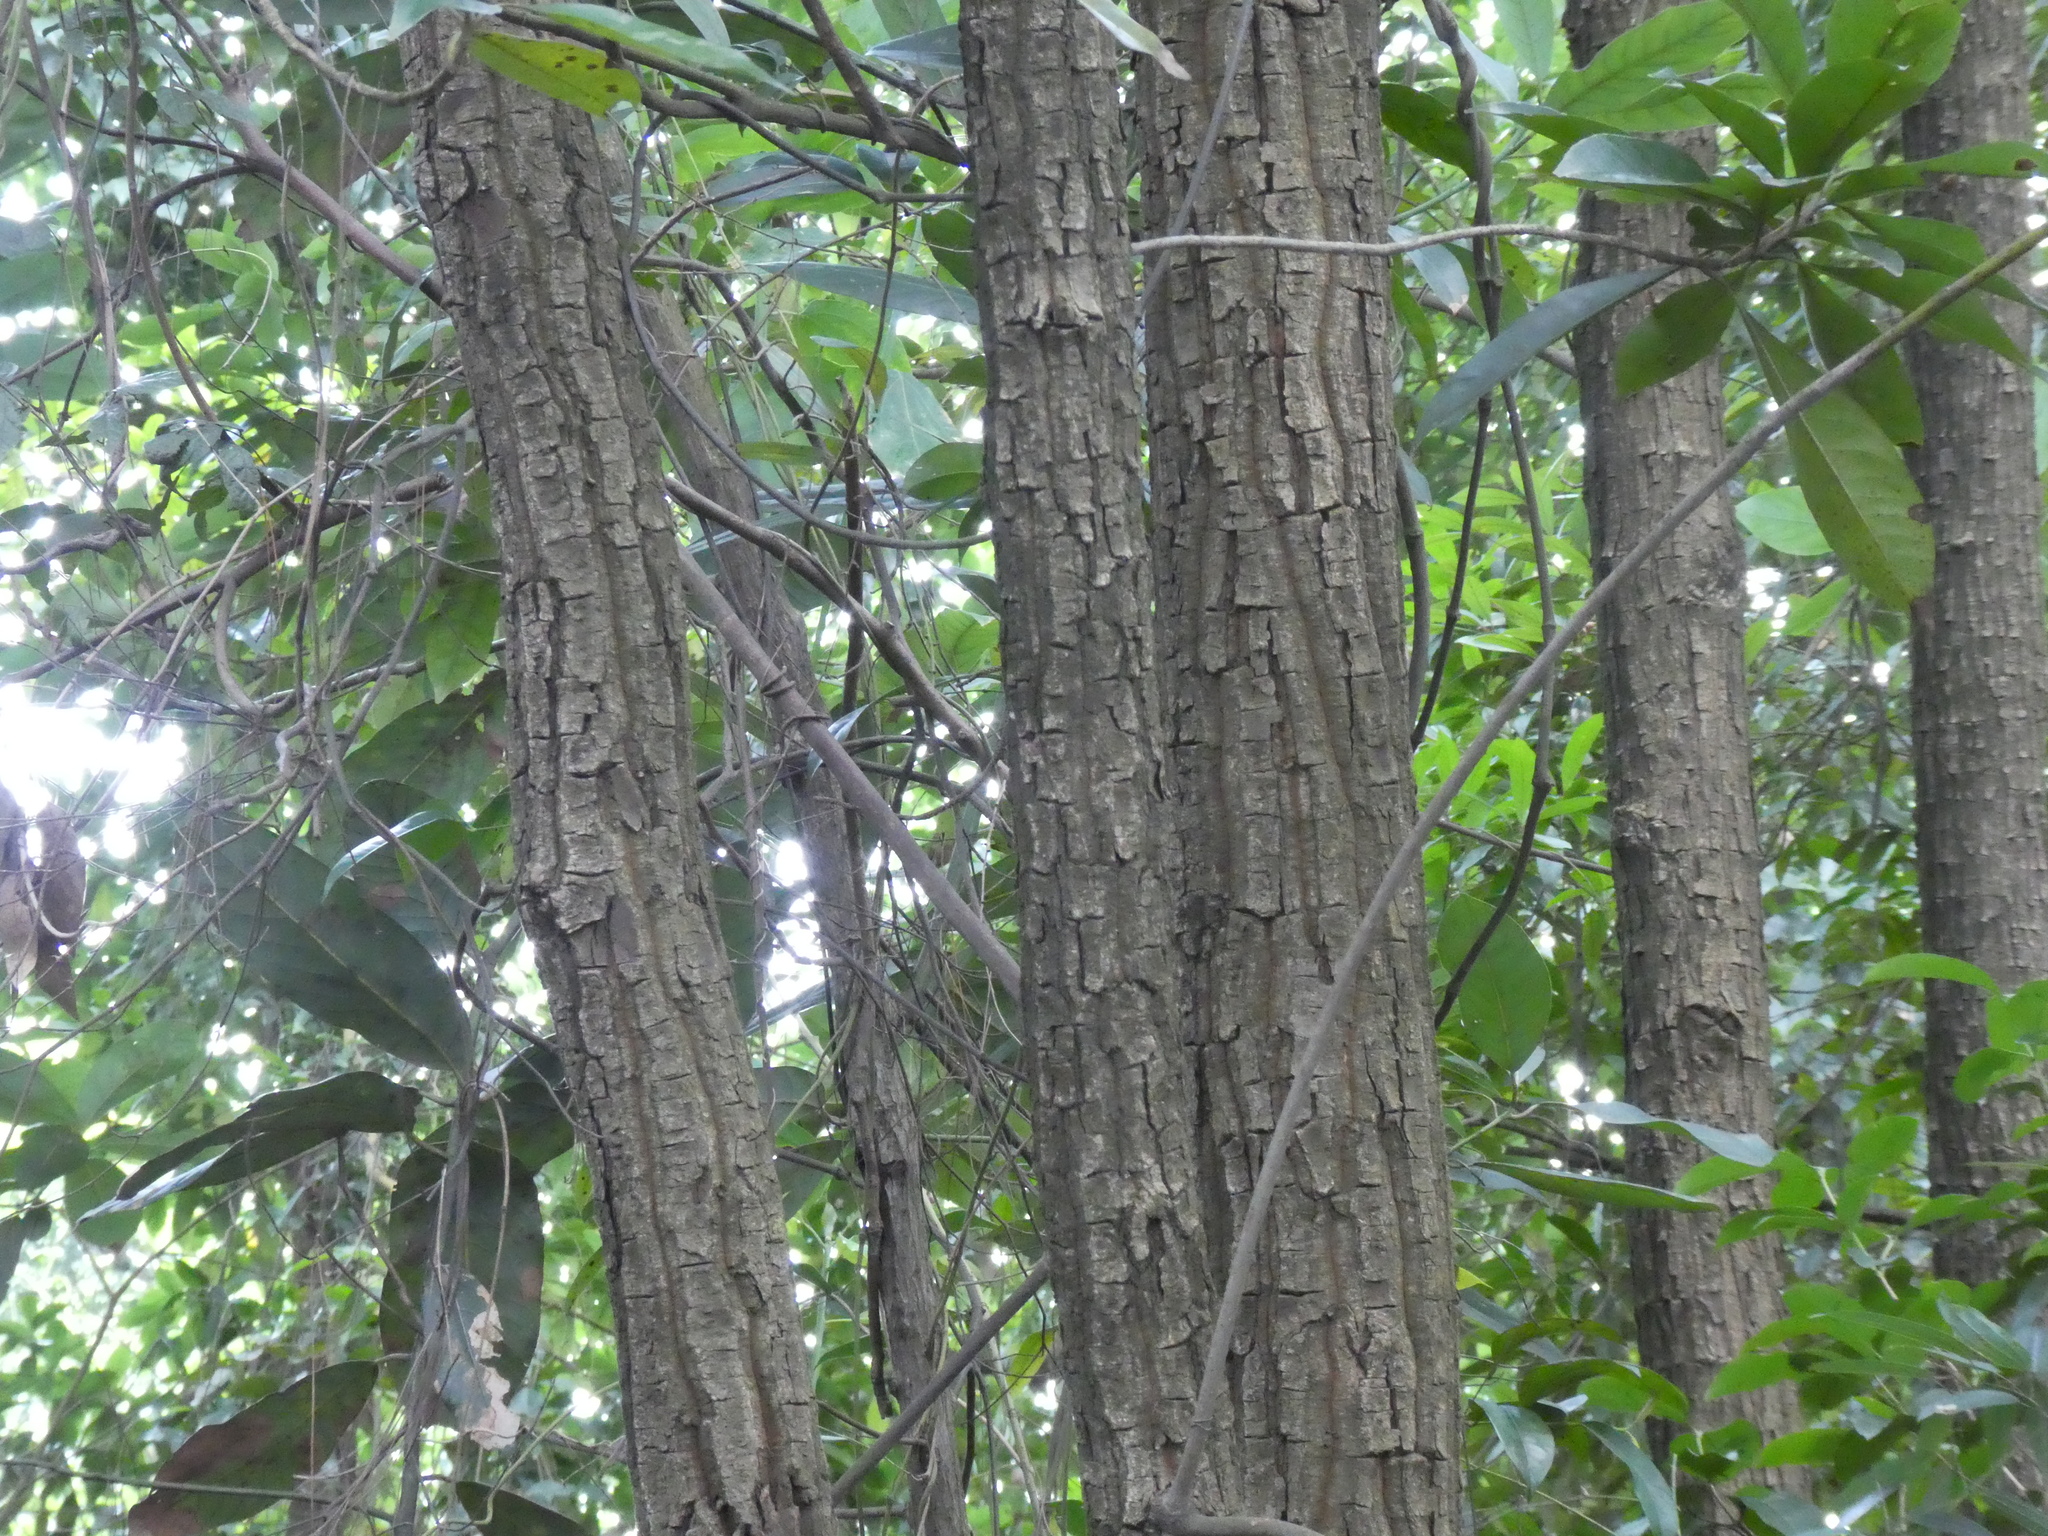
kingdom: Plantae
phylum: Tracheophyta
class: Magnoliopsida
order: Fagales
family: Juglandaceae
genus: Engelhardia
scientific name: Engelhardia roxburghiana
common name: Golden malay beam
